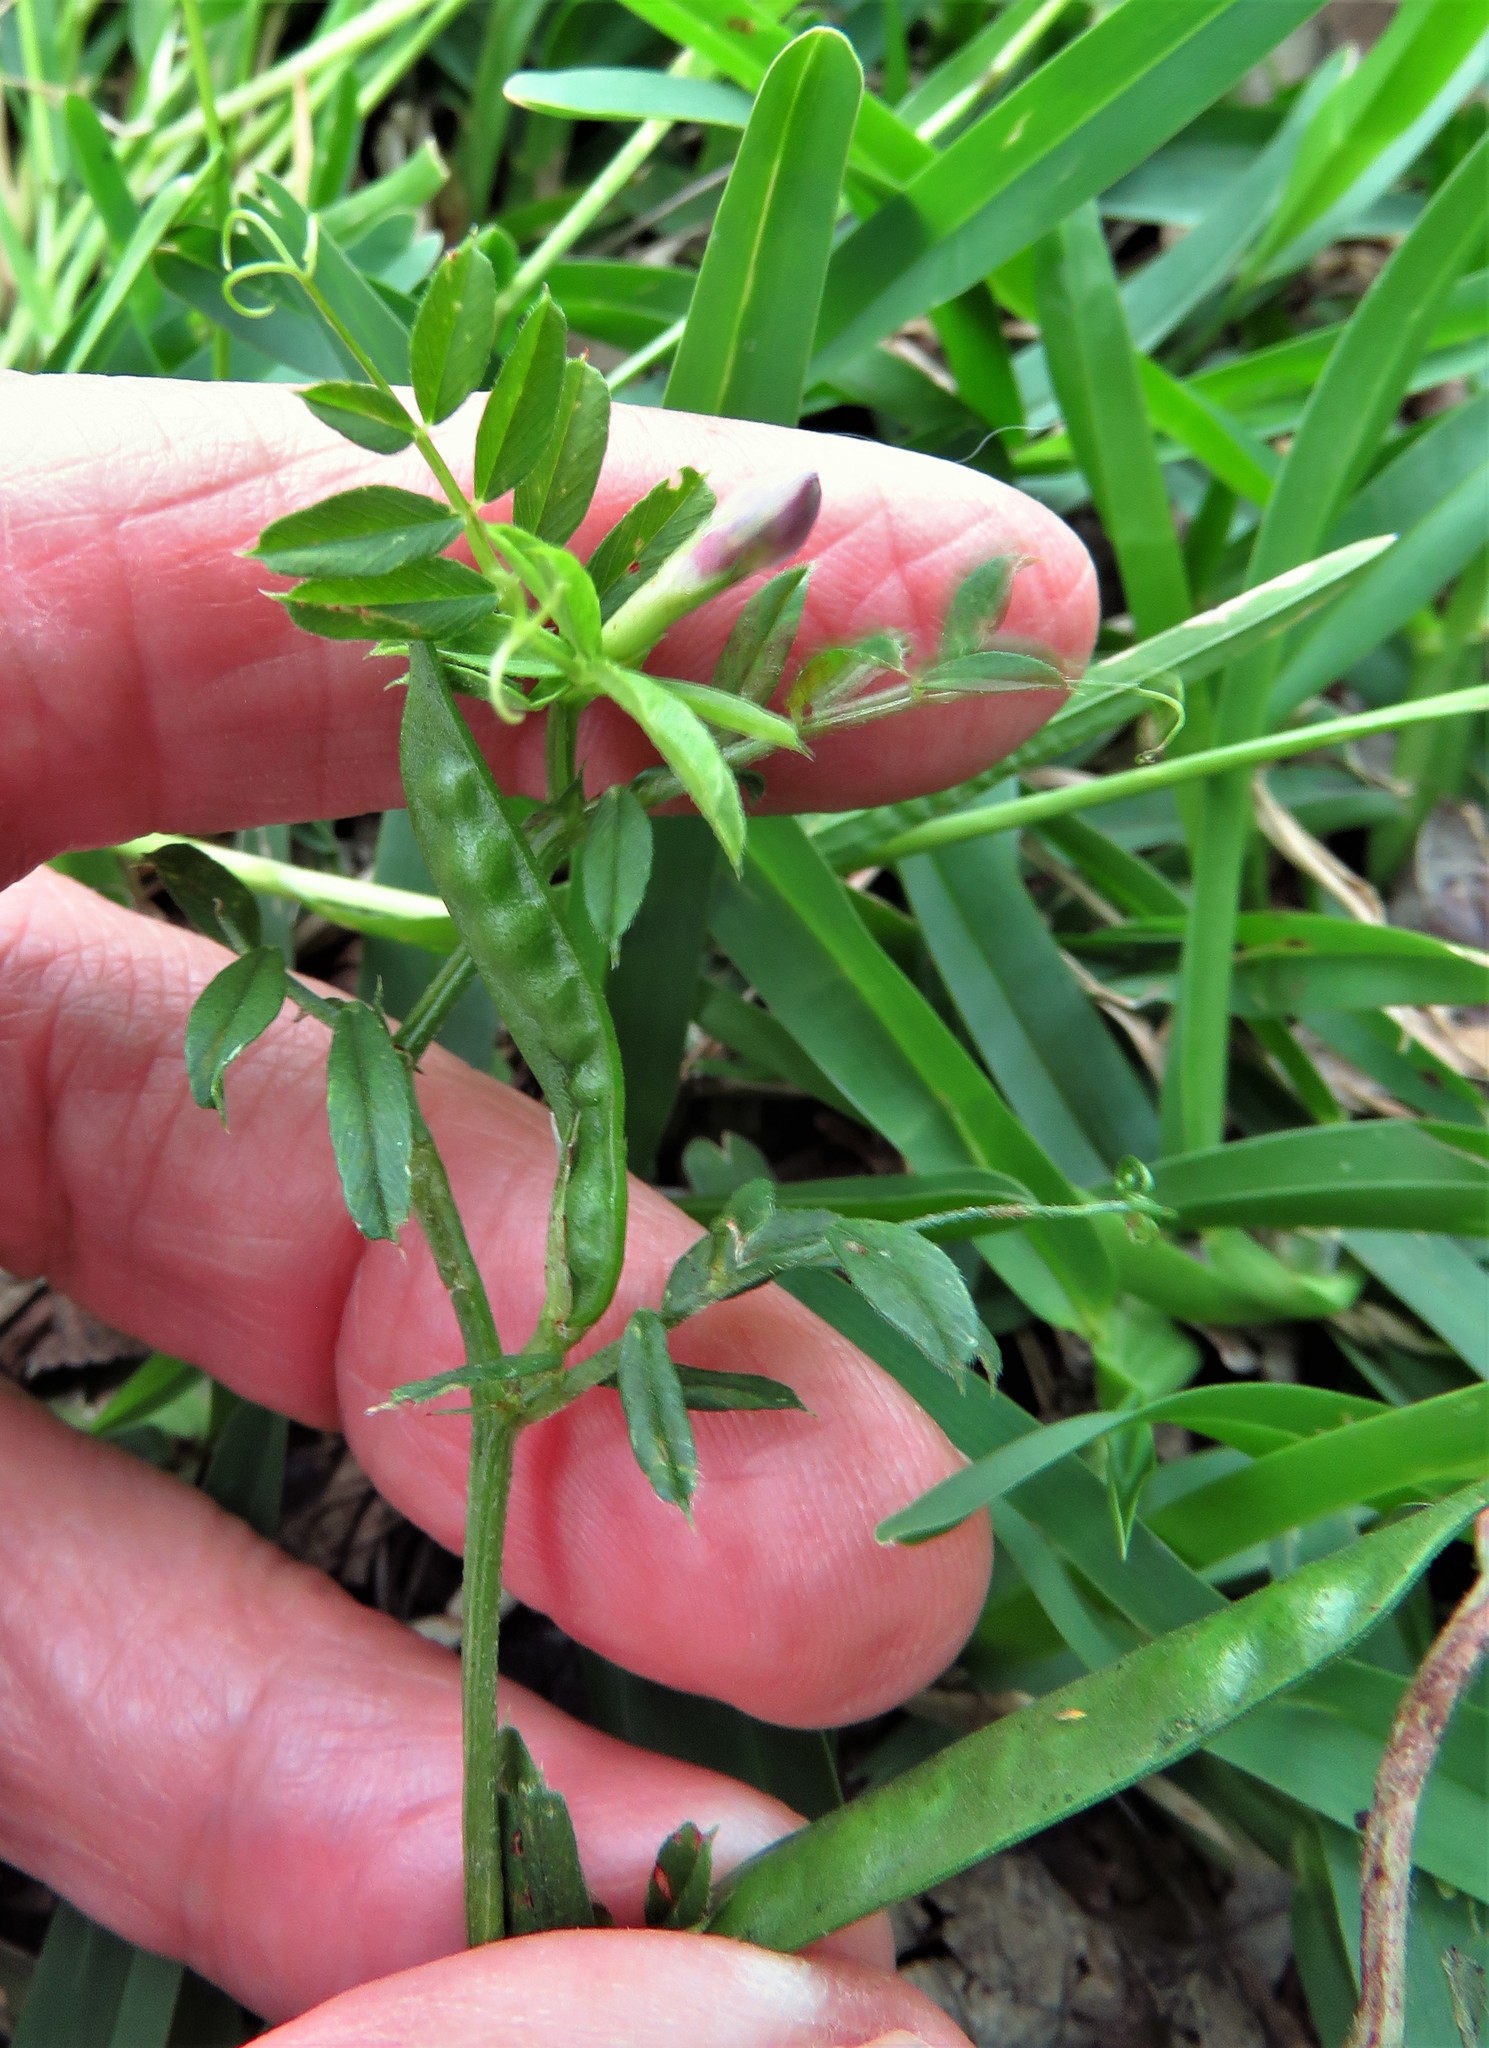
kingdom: Plantae
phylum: Tracheophyta
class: Magnoliopsida
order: Fabales
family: Fabaceae
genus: Vicia
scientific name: Vicia sativa
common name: Garden vetch
